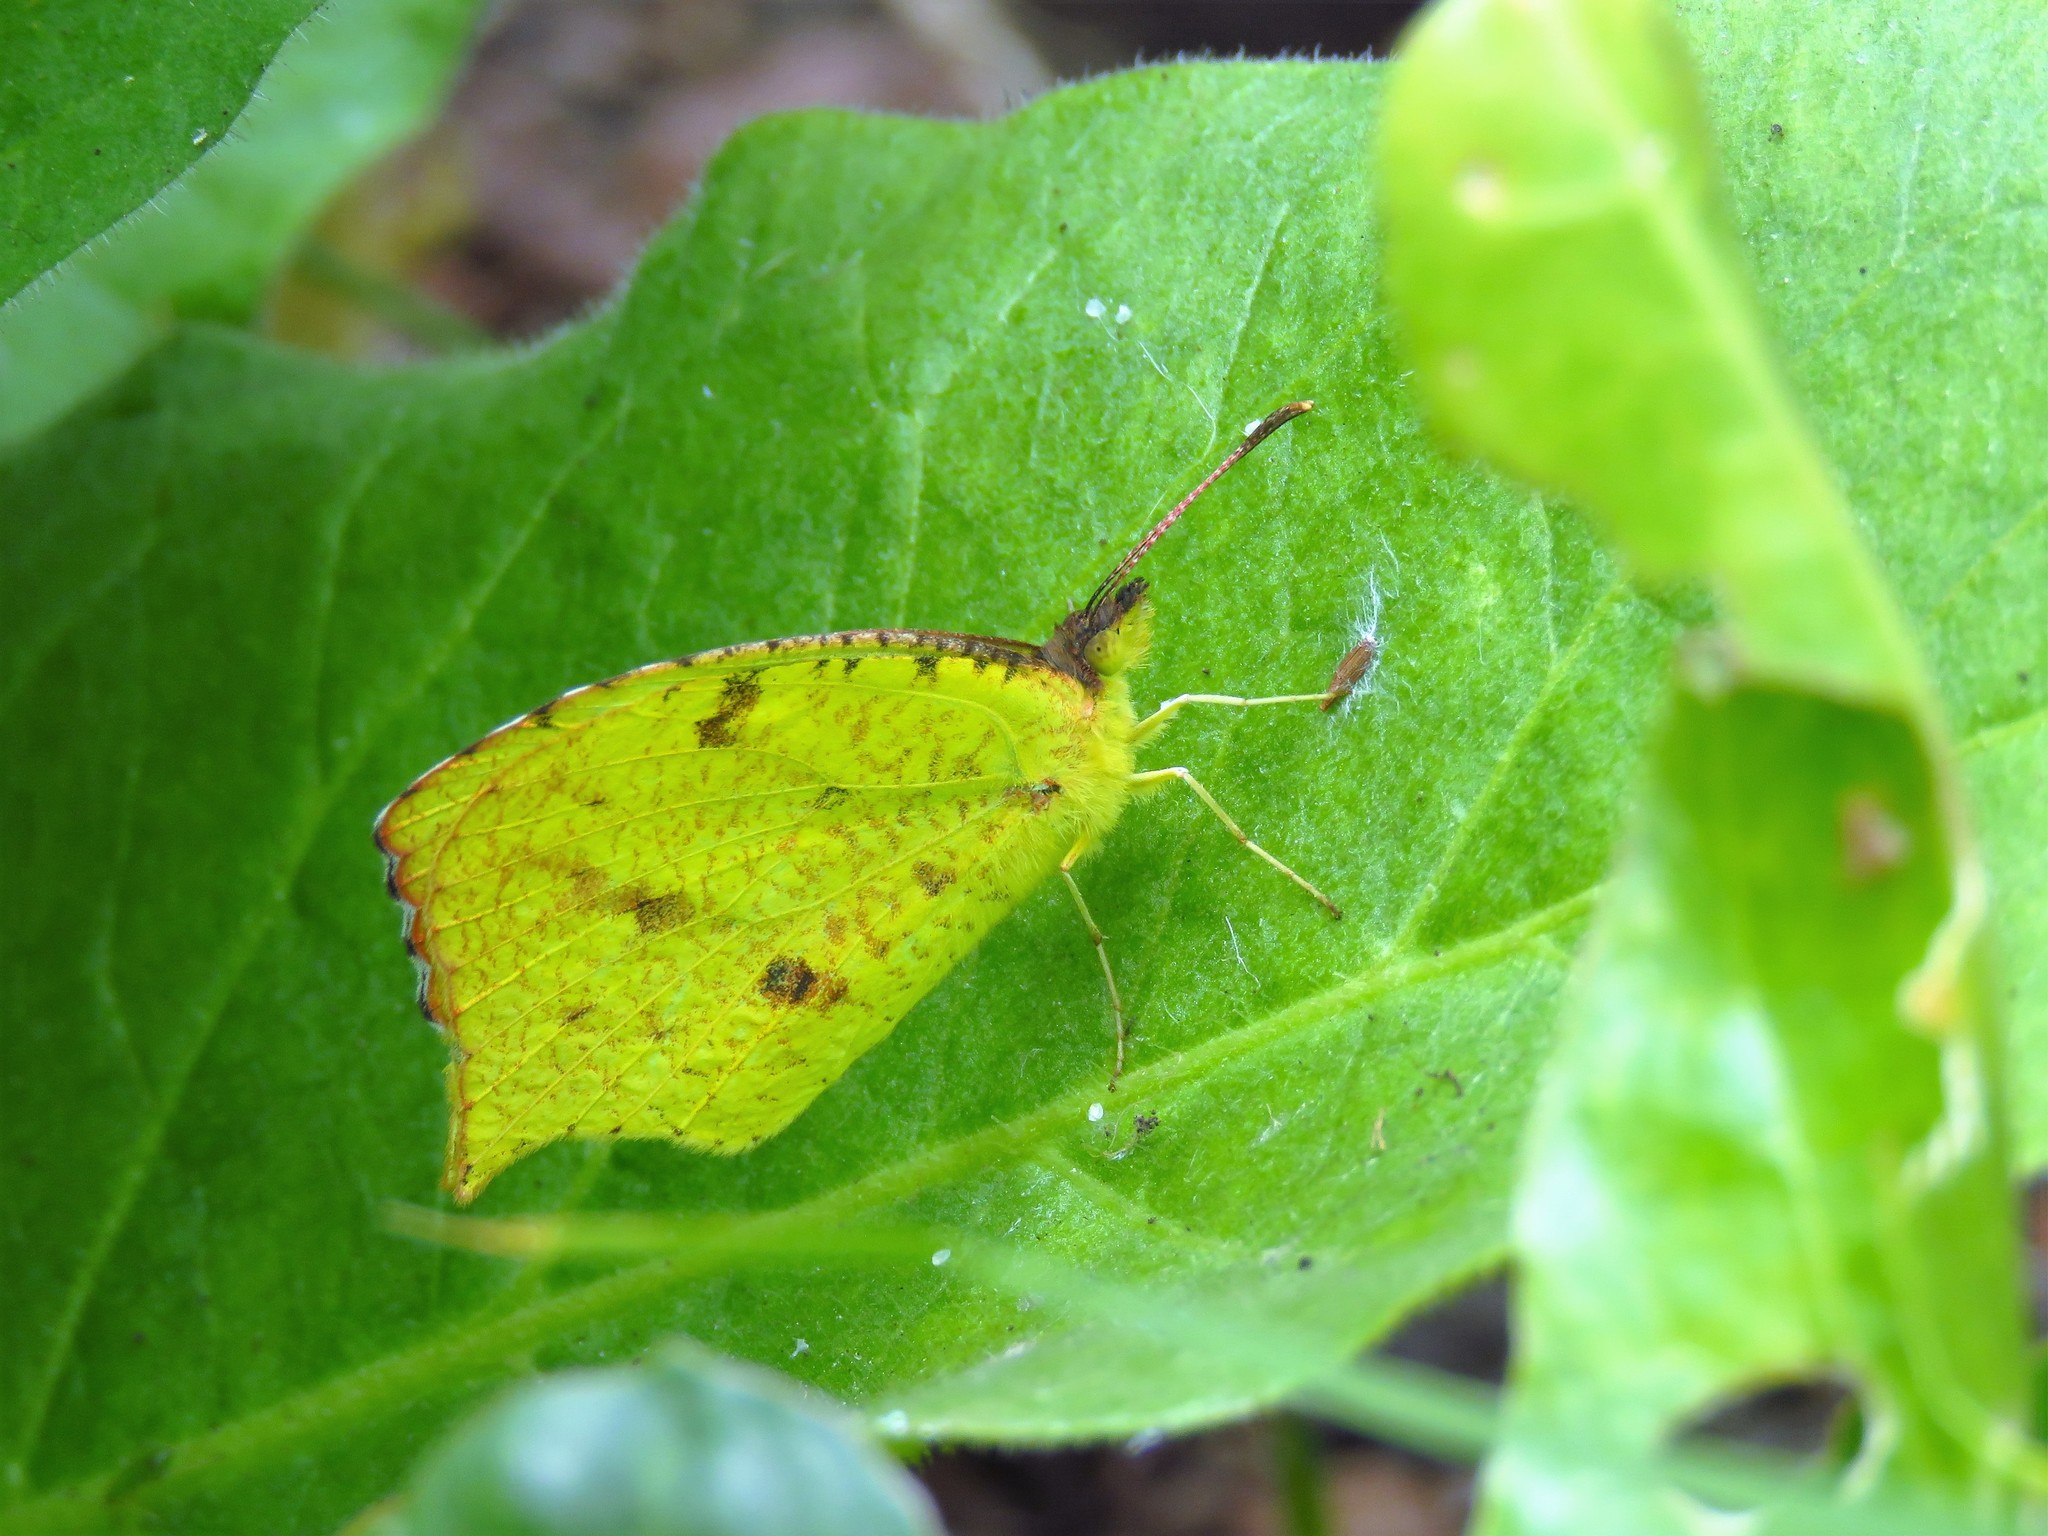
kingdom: Animalia
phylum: Arthropoda
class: Insecta
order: Lepidoptera
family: Pieridae
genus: Abaeis
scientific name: Abaeis salome
